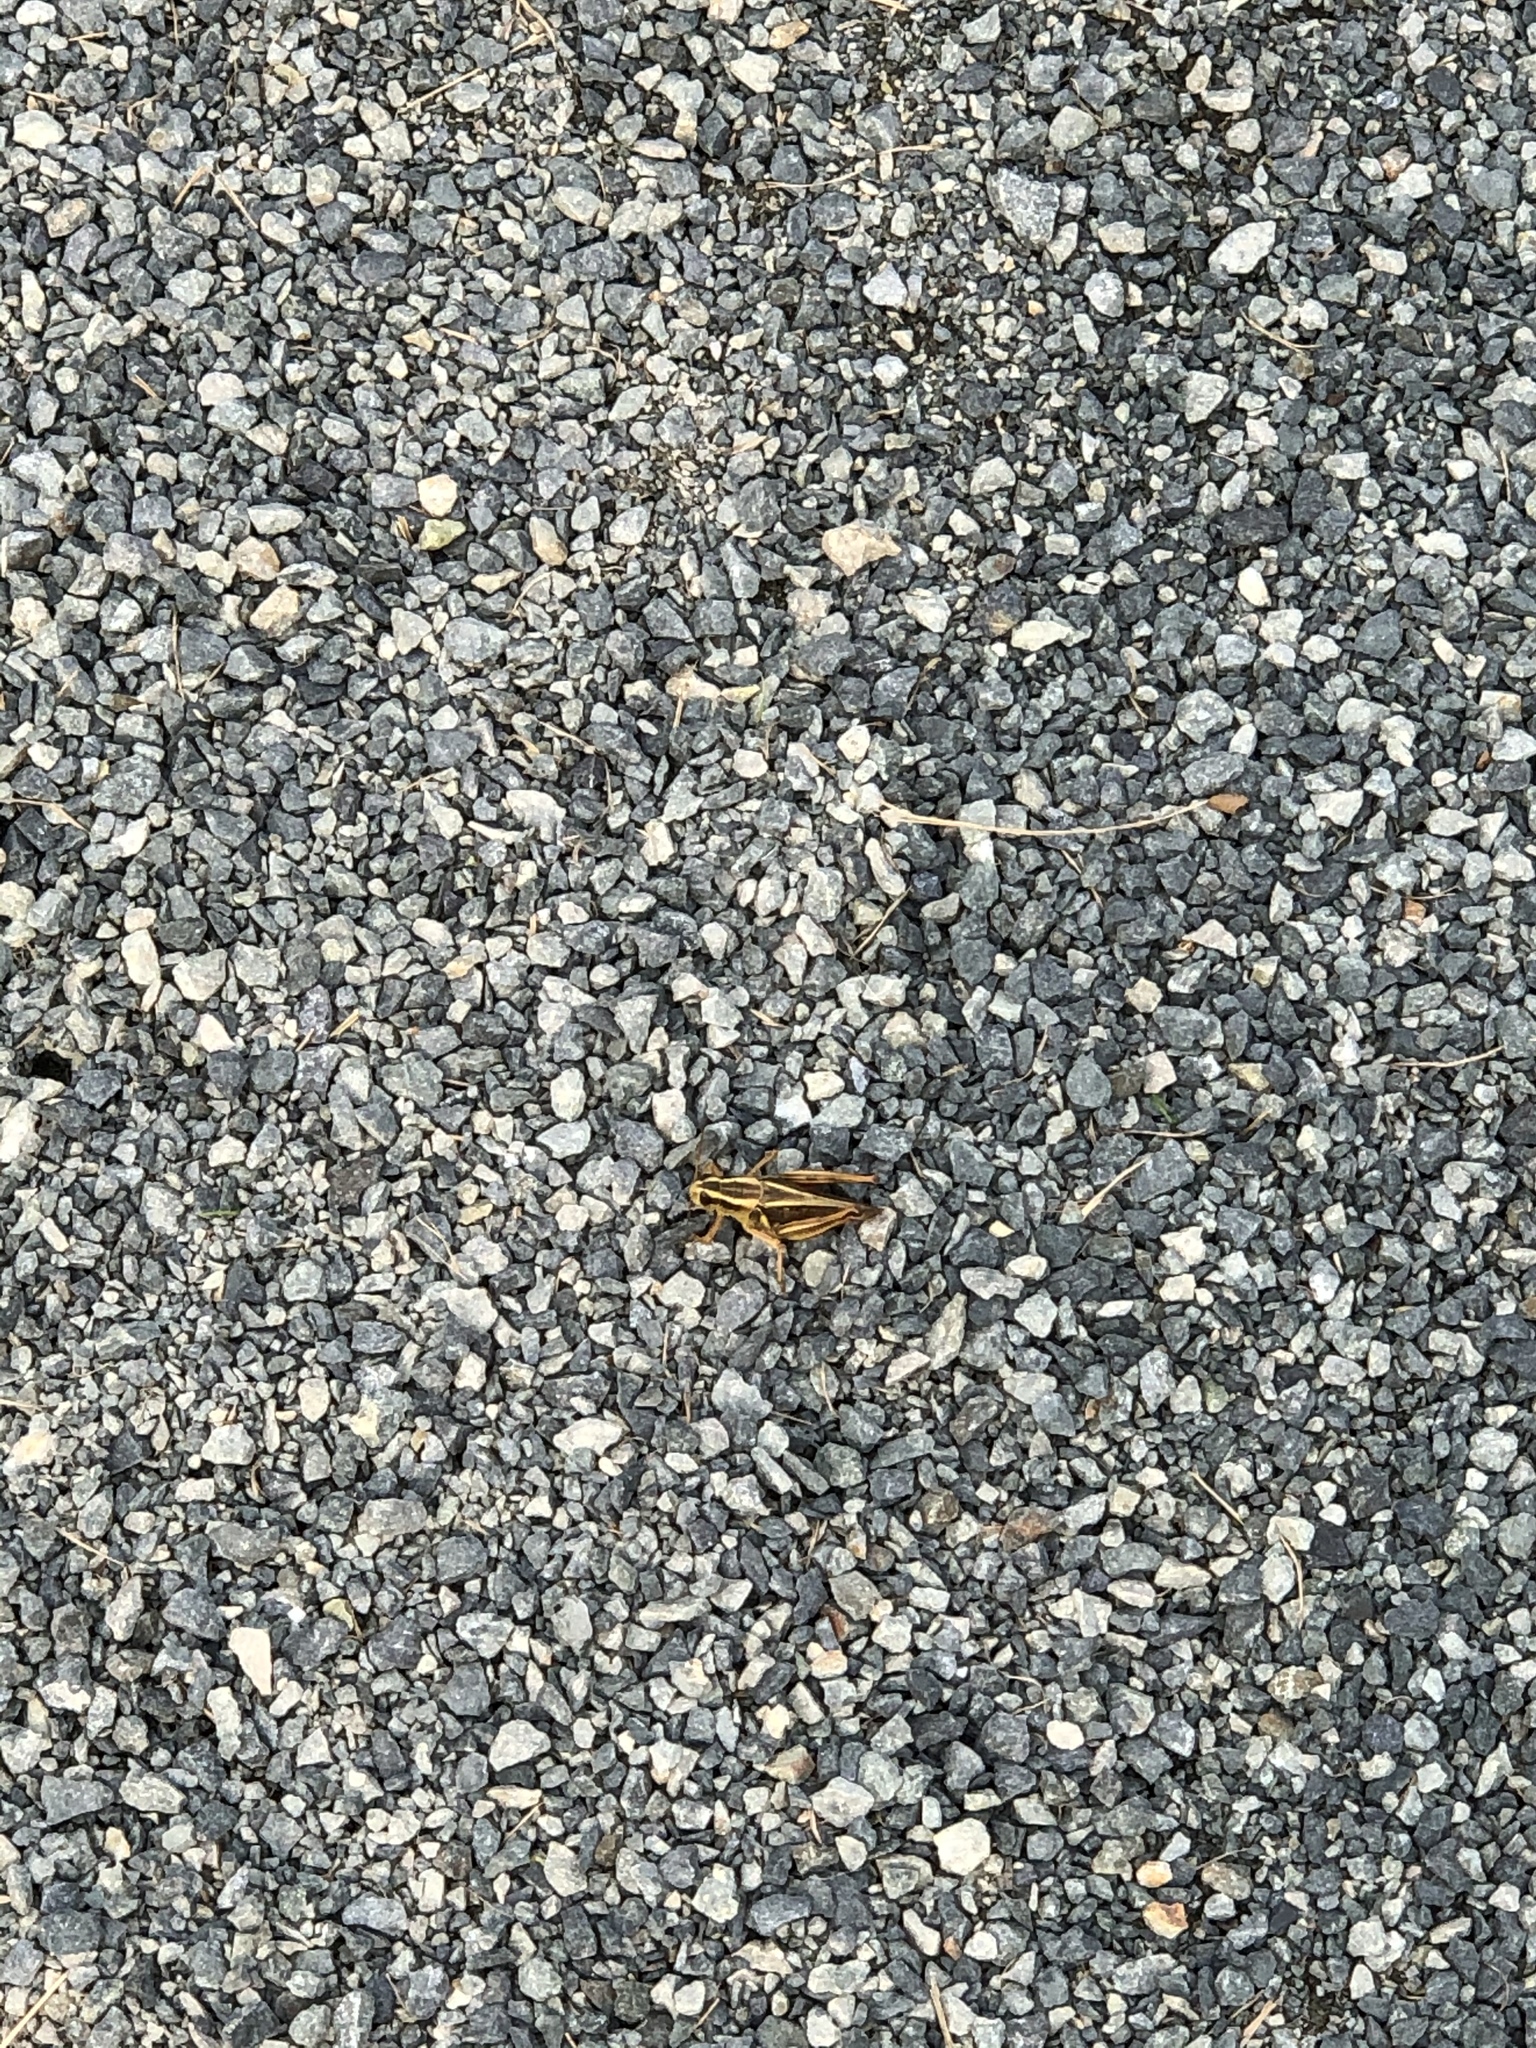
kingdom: Animalia
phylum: Arthropoda
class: Insecta
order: Orthoptera
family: Acrididae
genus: Melanoplus
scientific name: Melanoplus bivittatus
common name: Two-striped grasshopper
